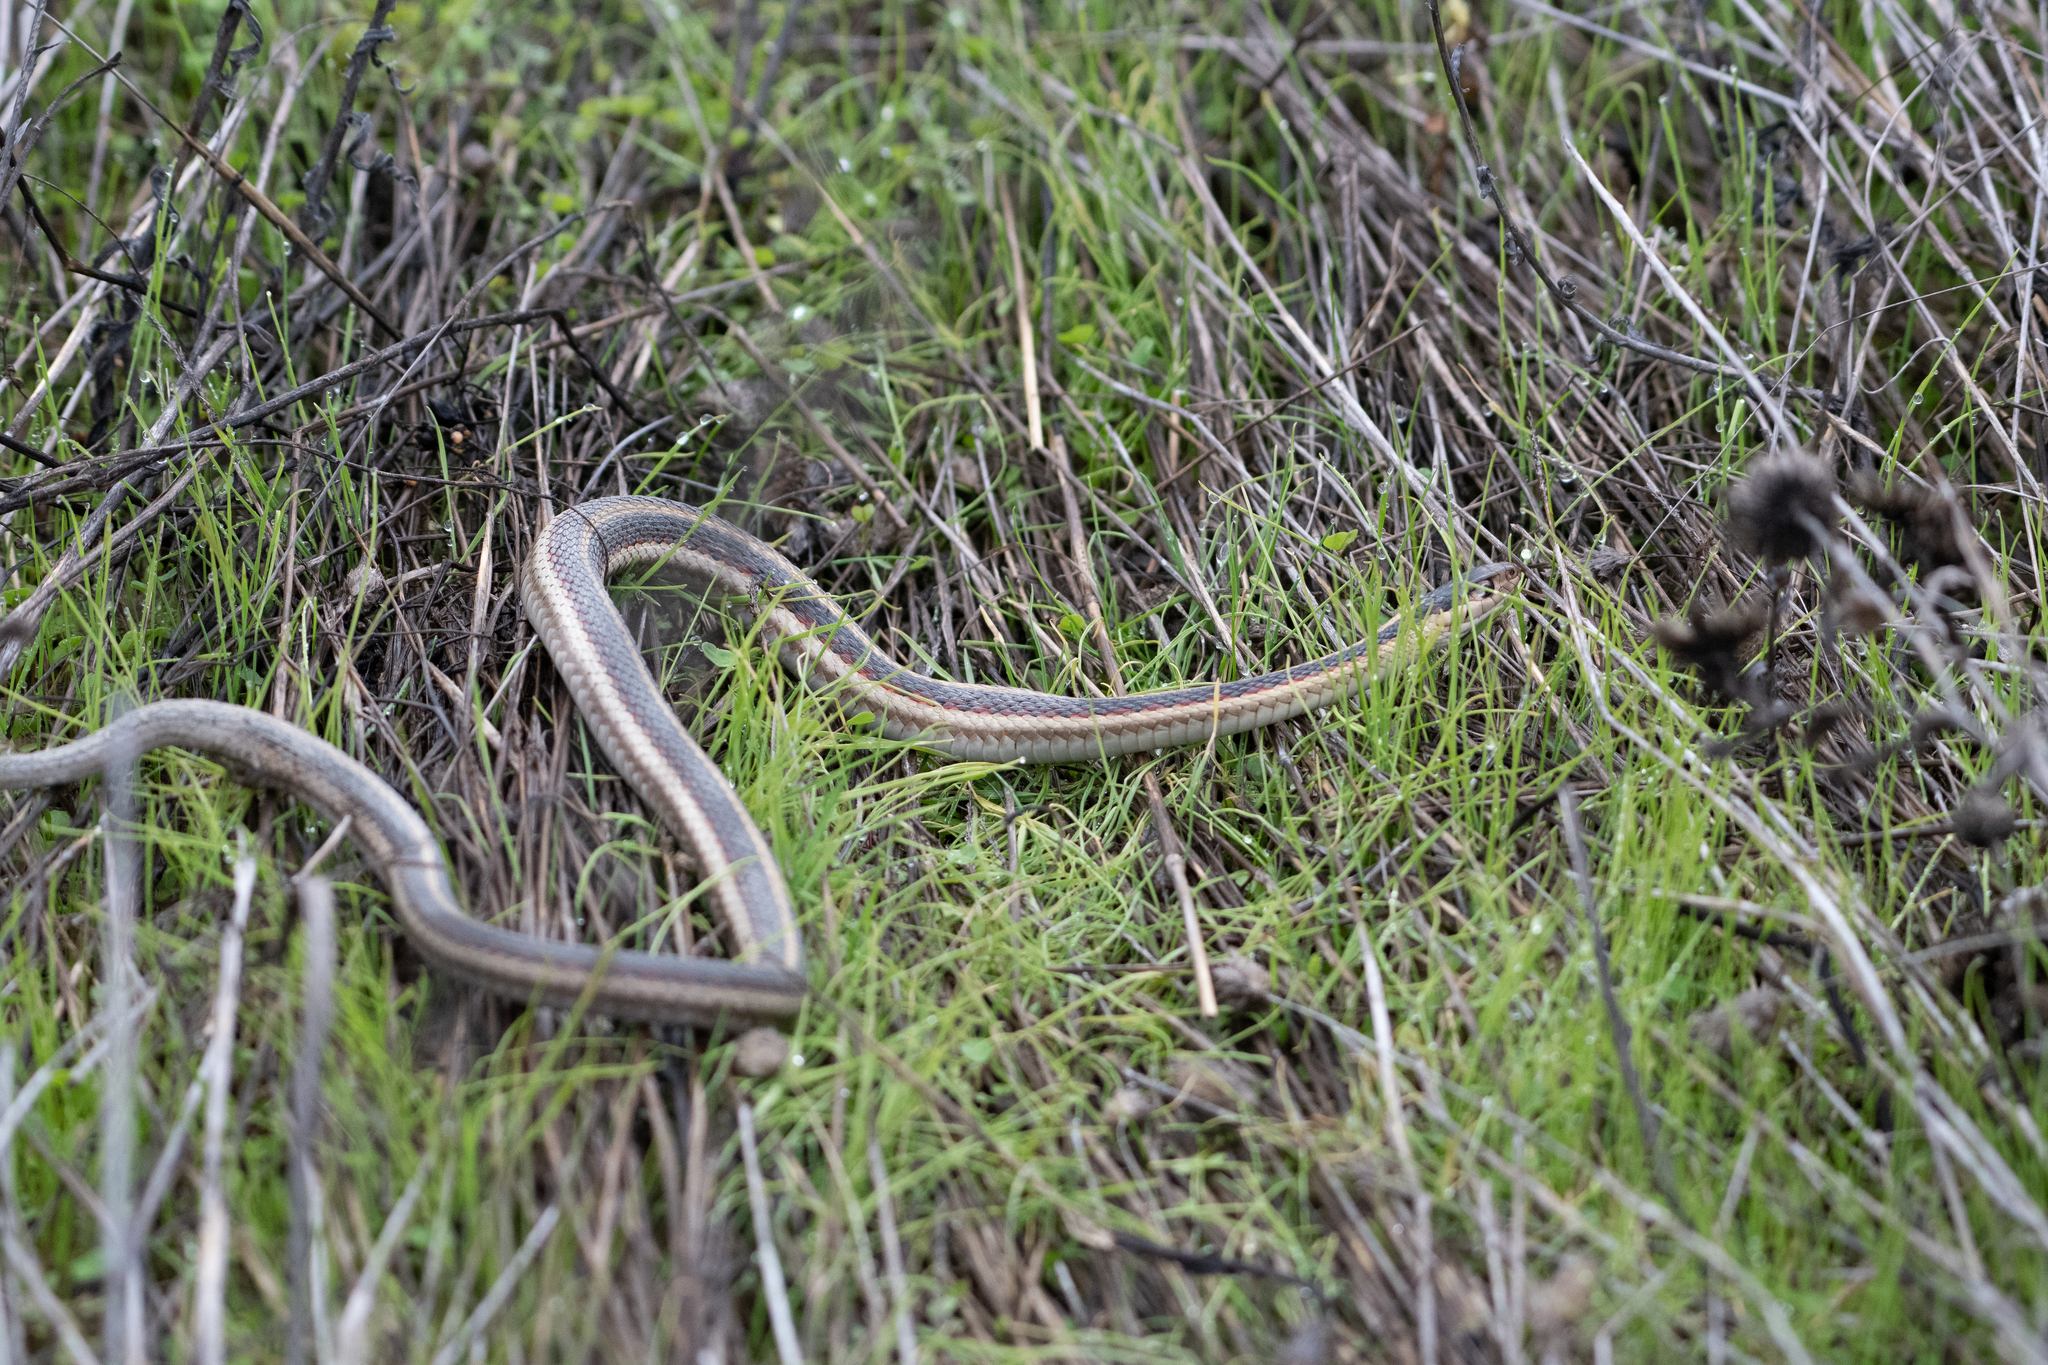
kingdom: Animalia
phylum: Chordata
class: Squamata
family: Colubridae
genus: Thamnophis
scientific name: Thamnophis sirtalis
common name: Common garter snake
